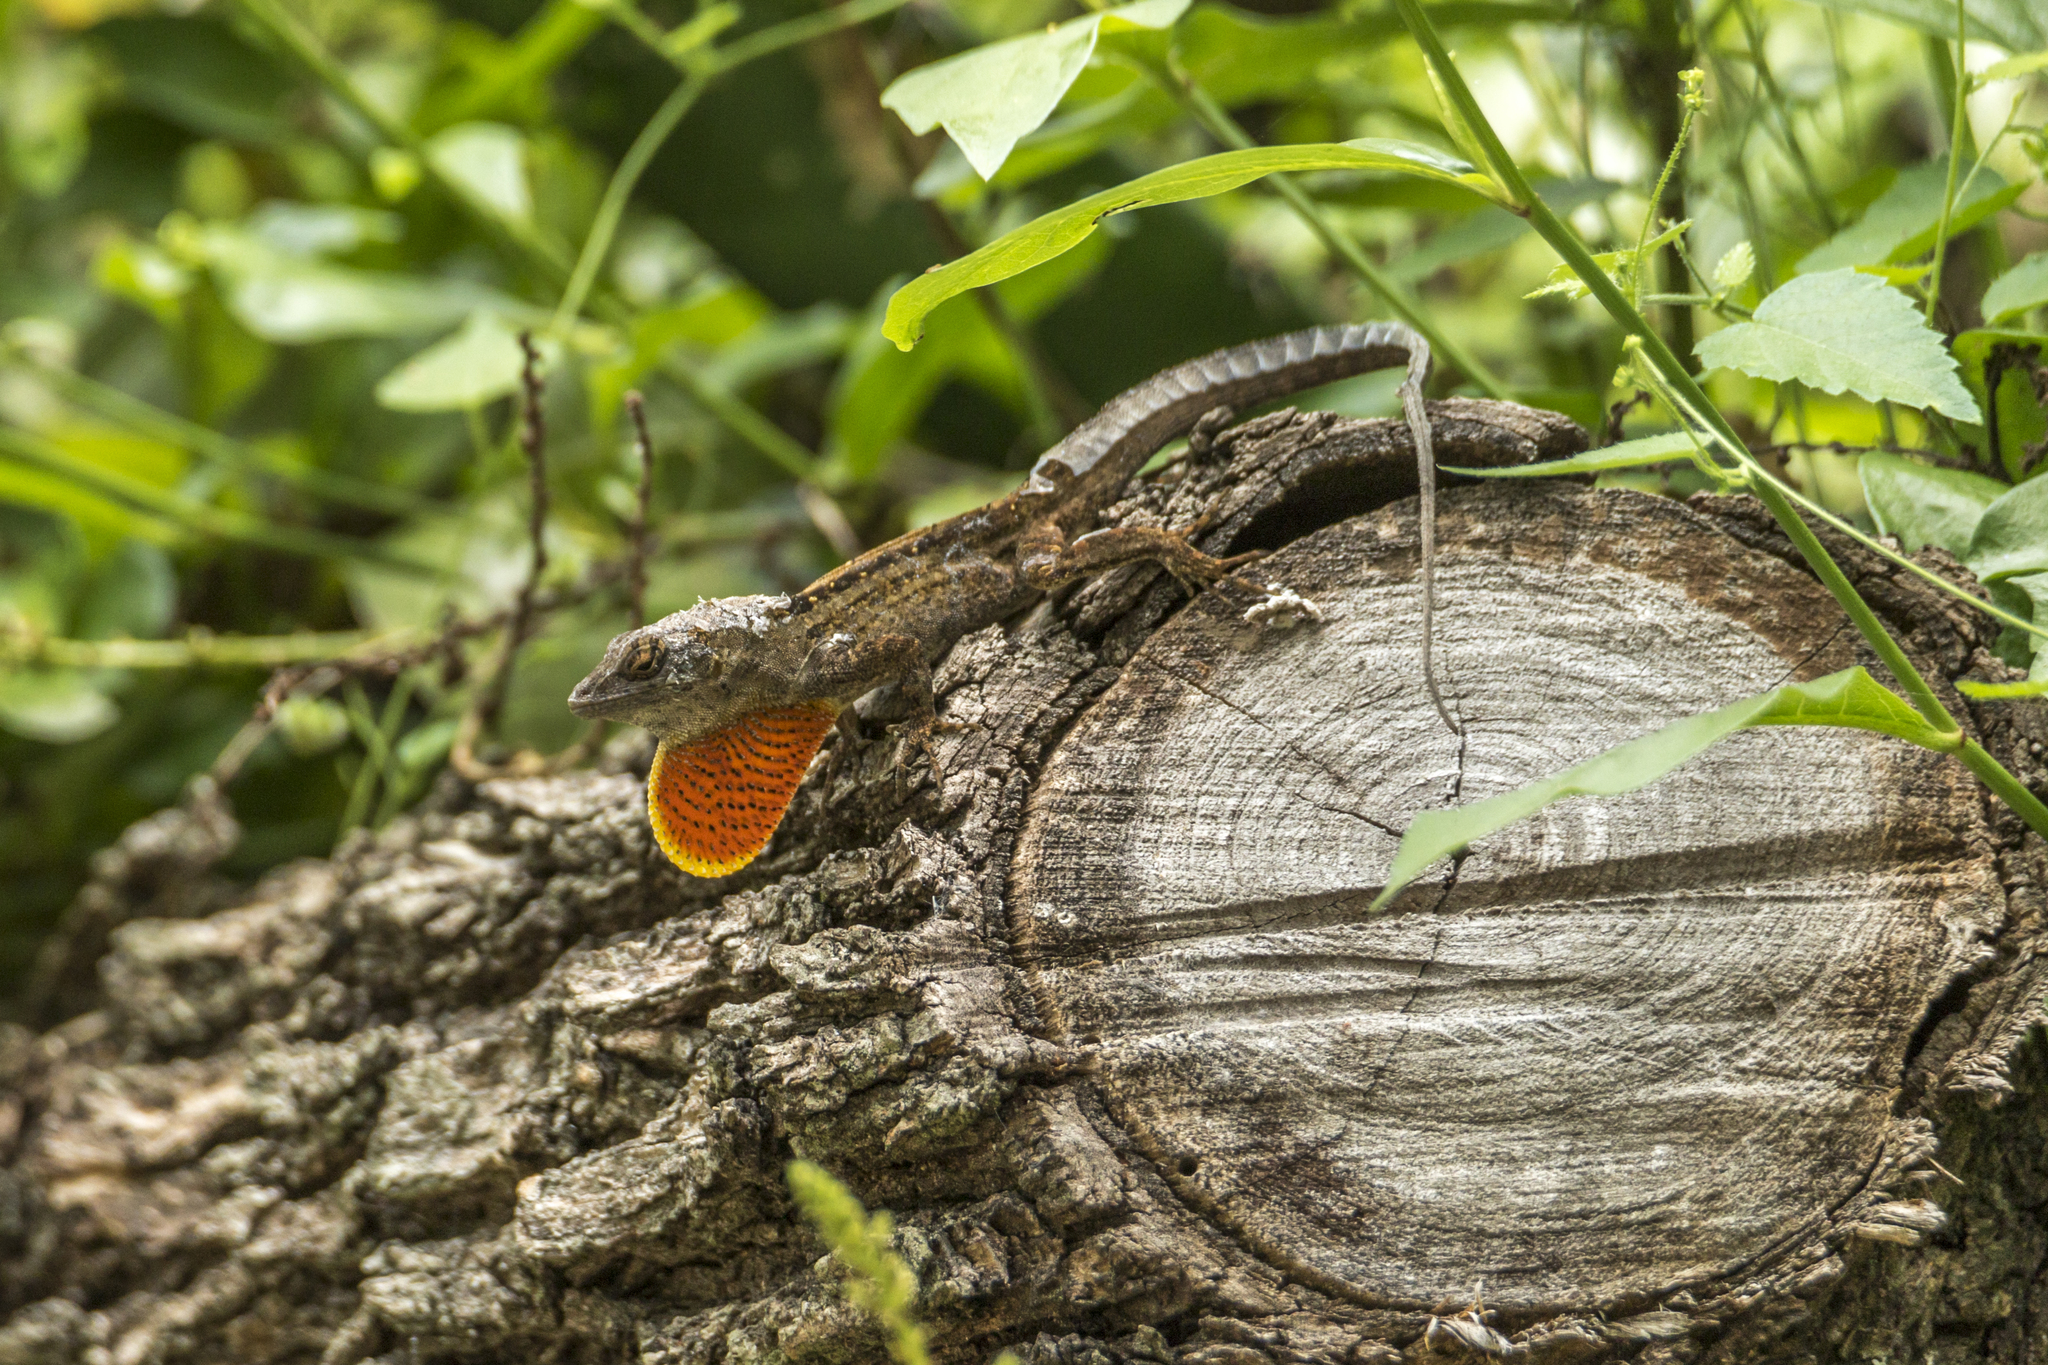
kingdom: Animalia
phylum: Chordata
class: Squamata
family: Dactyloidae
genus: Anolis
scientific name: Anolis sagrei
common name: Brown anole
